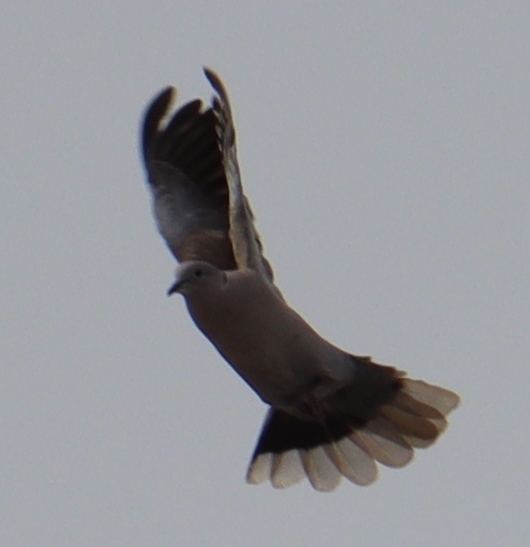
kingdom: Animalia
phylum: Chordata
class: Aves
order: Columbiformes
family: Columbidae
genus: Streptopelia
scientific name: Streptopelia decaocto
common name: Eurasian collared dove
